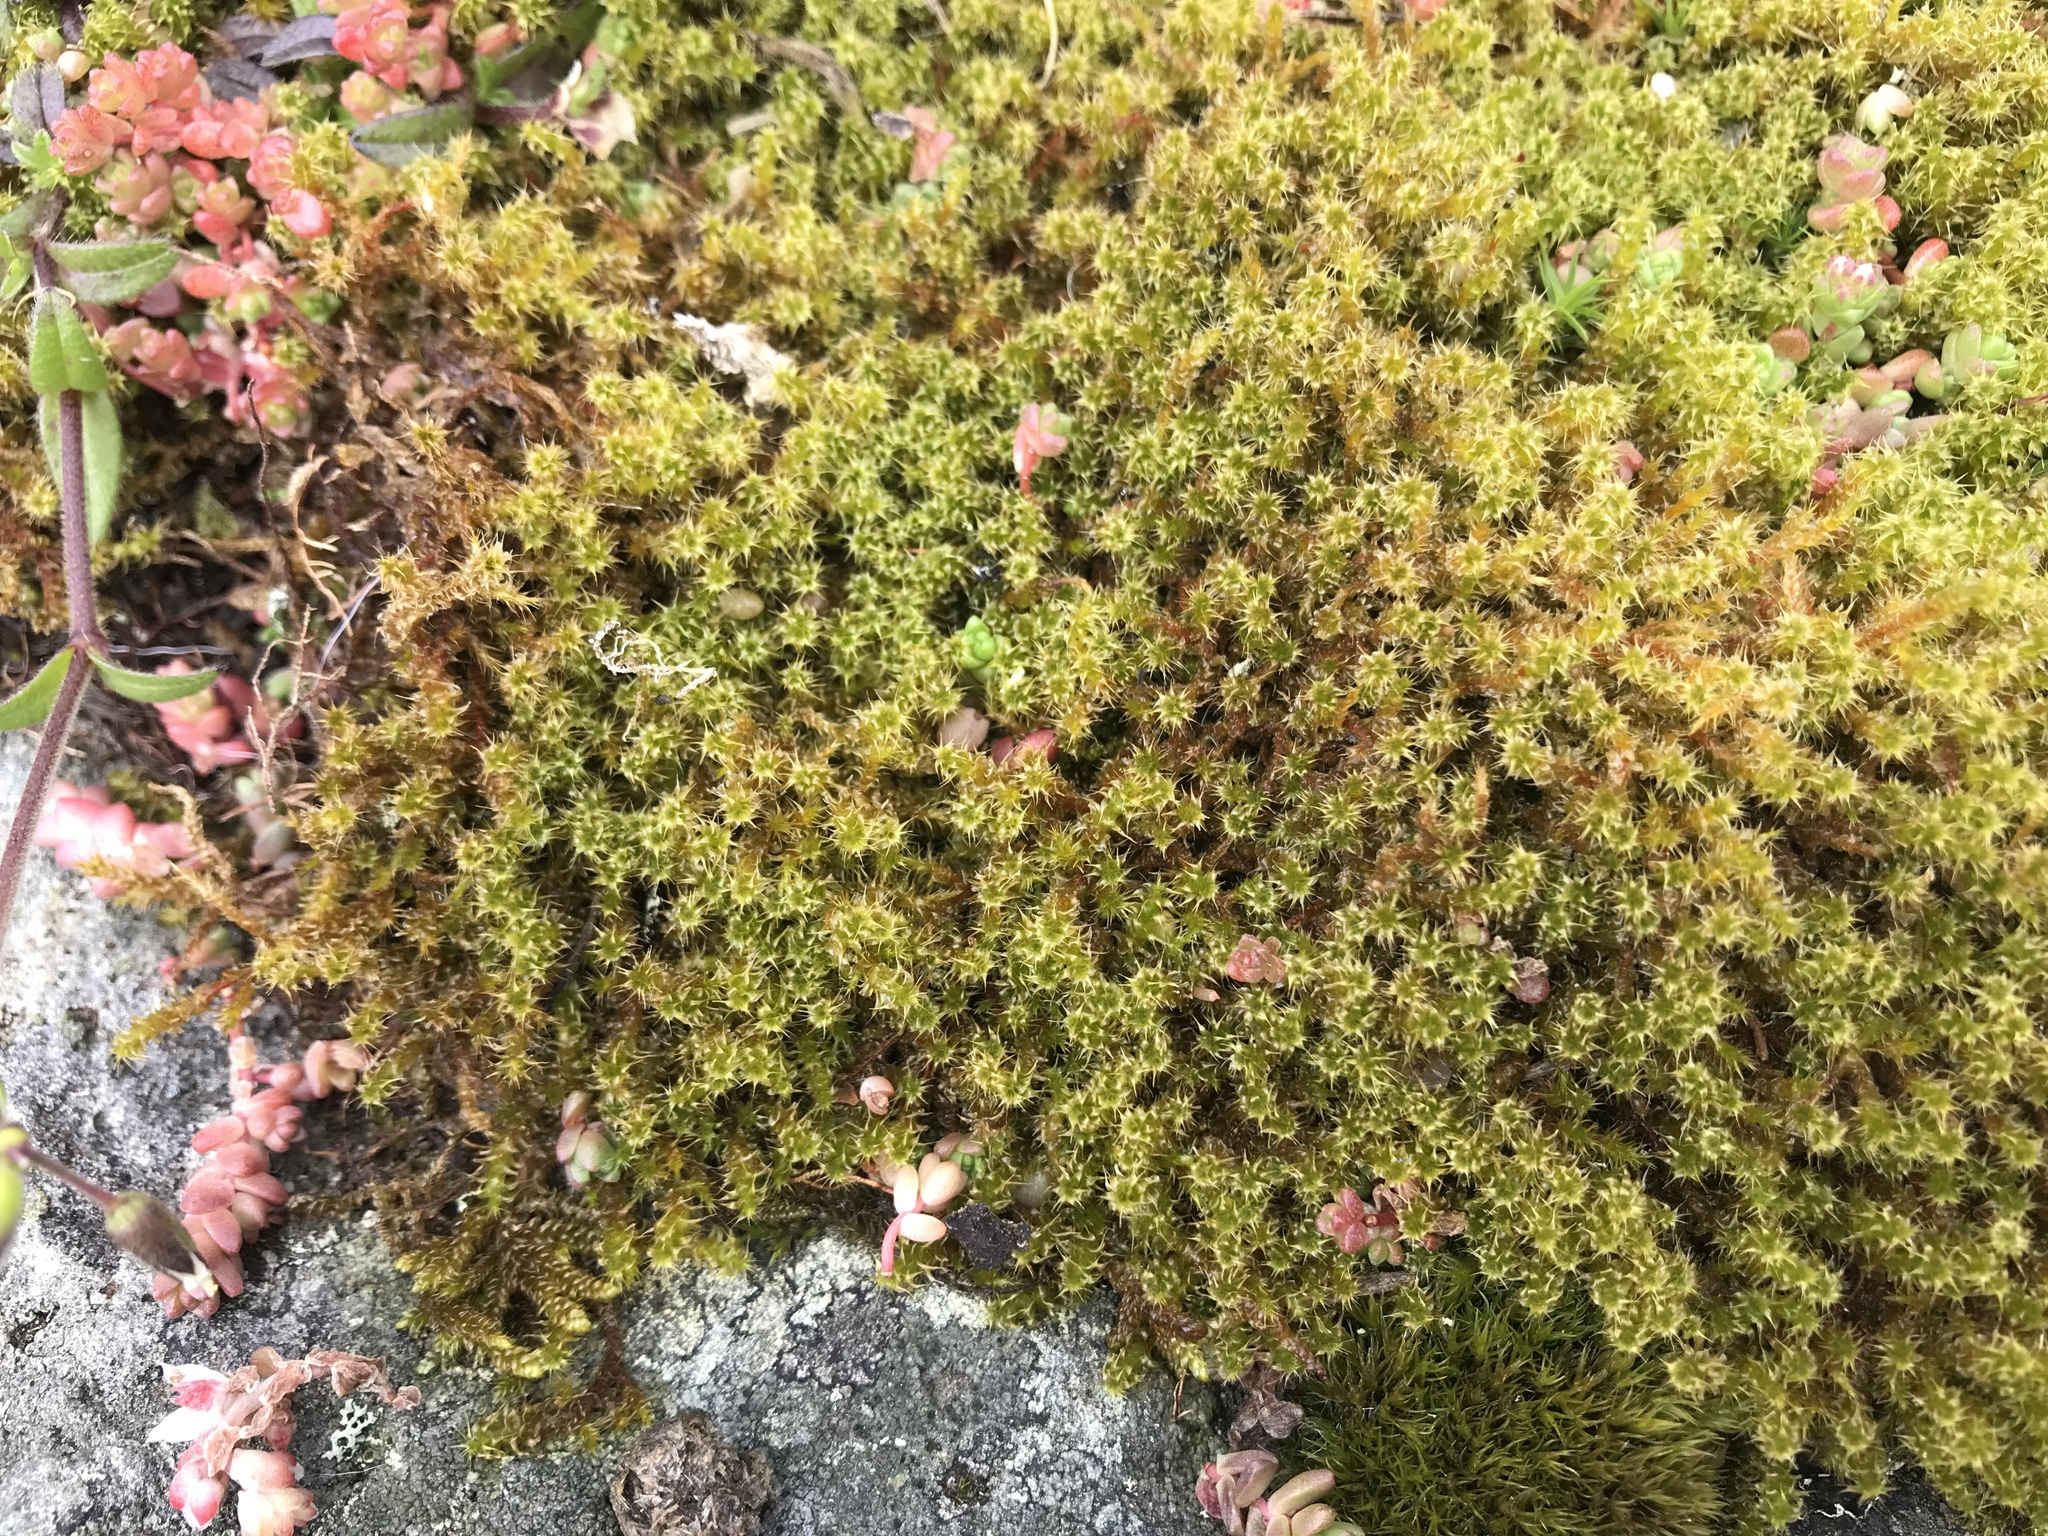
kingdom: Plantae
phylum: Bryophyta
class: Bryopsida
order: Hypnales
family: Hylocomiaceae
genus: Rhytidiadelphus
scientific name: Rhytidiadelphus squarrosus
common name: Springy turf-moss
